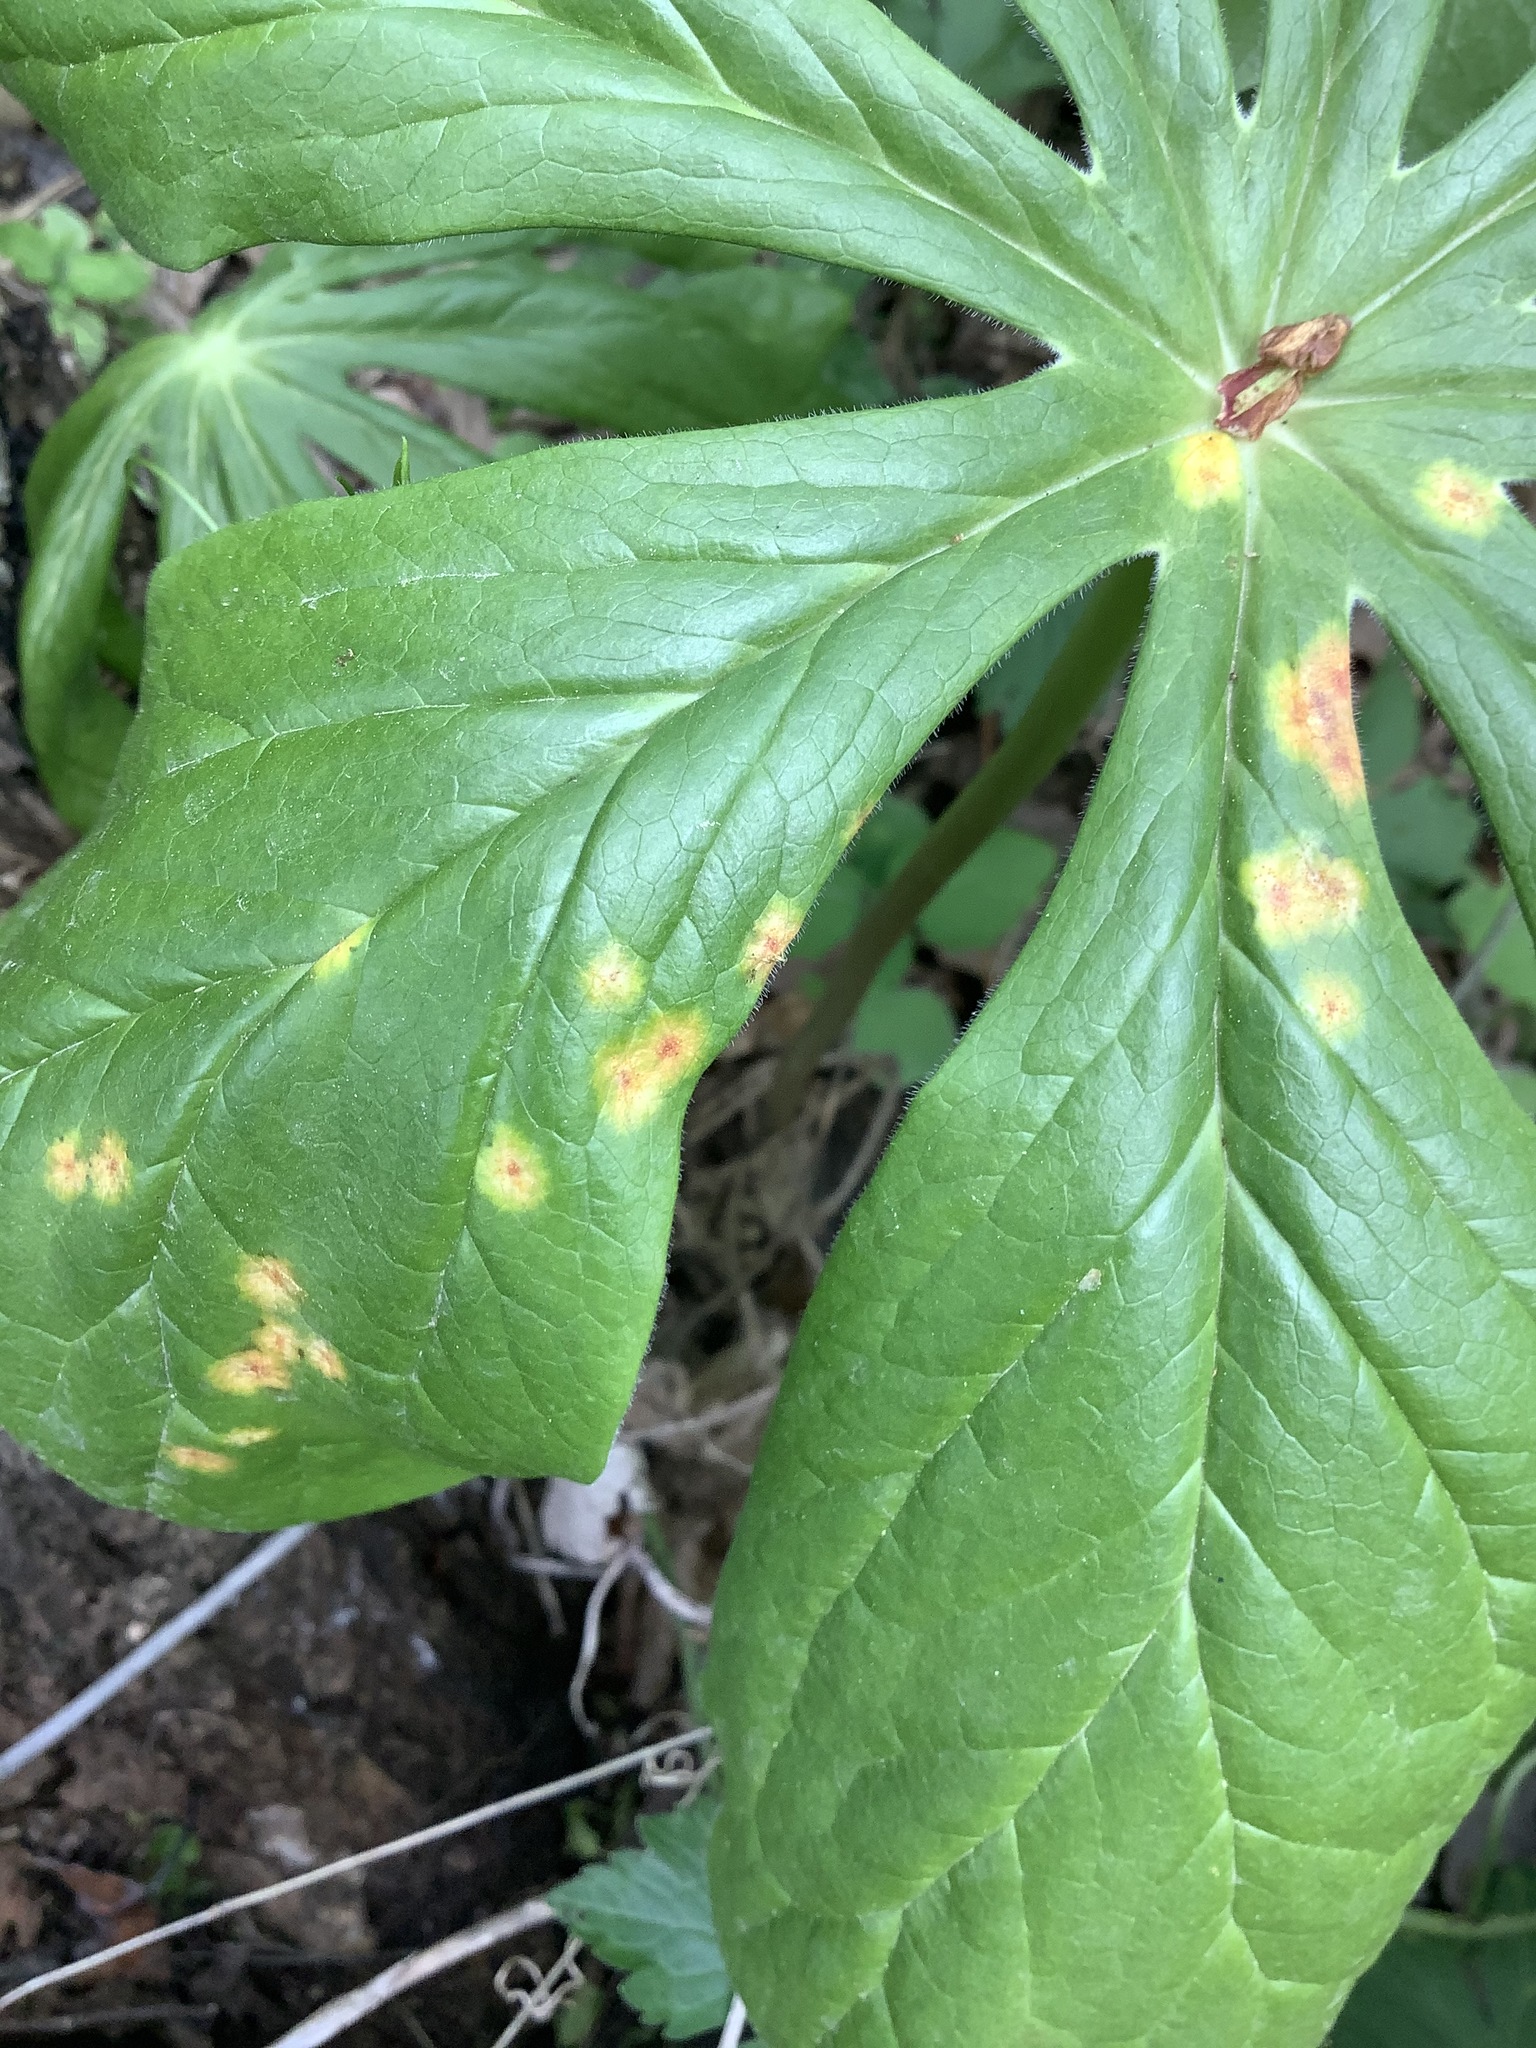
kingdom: Fungi
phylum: Basidiomycota
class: Pucciniomycetes
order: Pucciniales
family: Pucciniaceae
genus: Puccinia
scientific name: Puccinia podophylli
